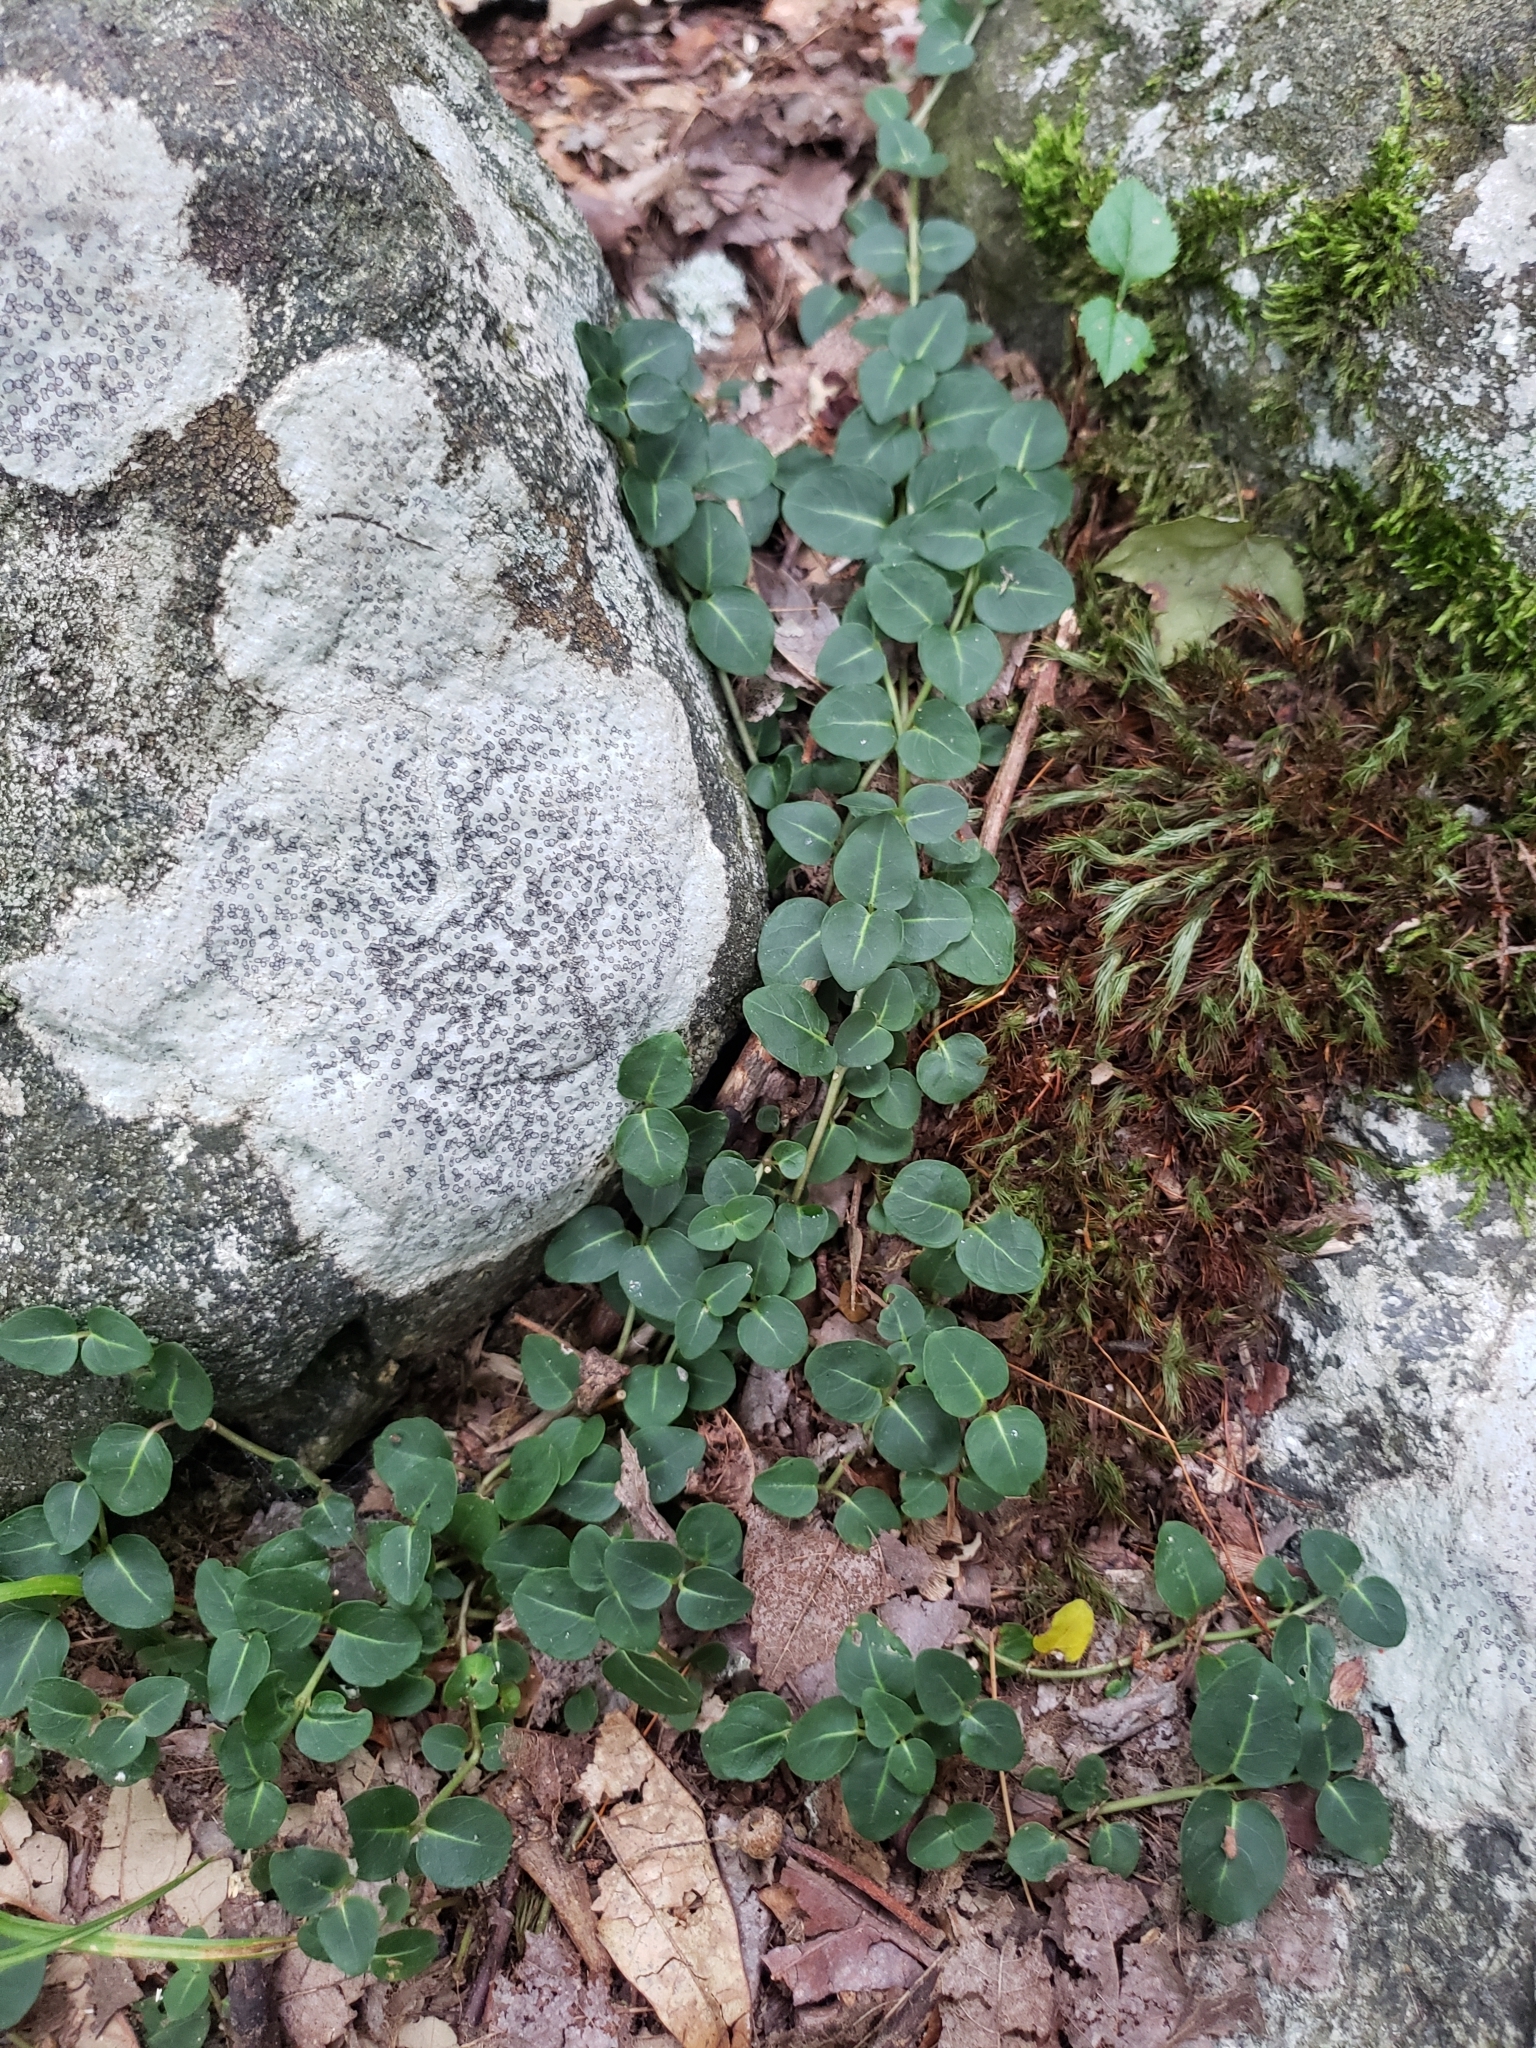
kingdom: Plantae
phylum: Tracheophyta
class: Magnoliopsida
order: Gentianales
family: Rubiaceae
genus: Mitchella
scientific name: Mitchella repens
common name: Partridge-berry
